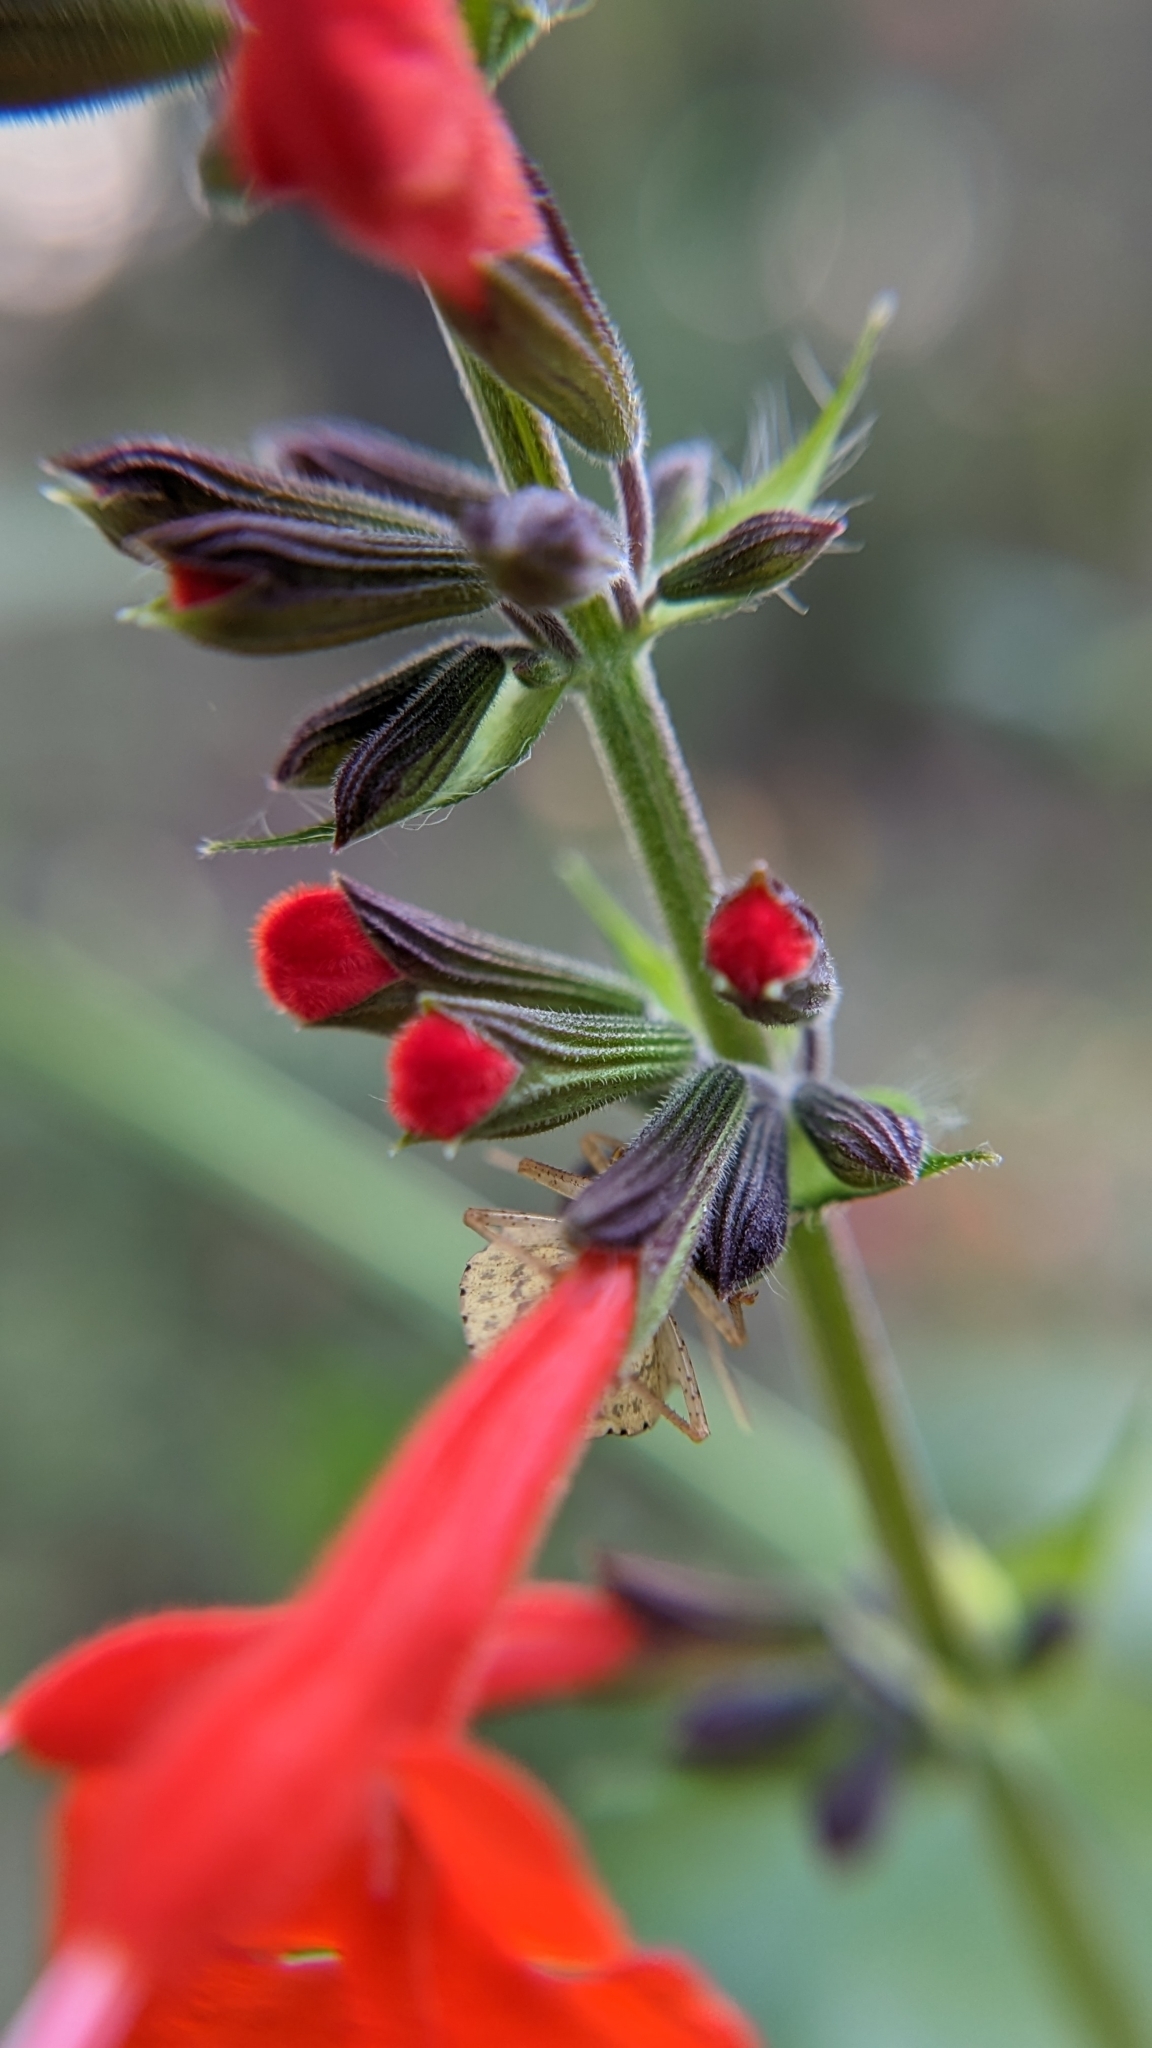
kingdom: Plantae
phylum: Tracheophyta
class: Magnoliopsida
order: Lamiales
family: Lamiaceae
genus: Salvia
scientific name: Salvia coccinea
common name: Blood sage
